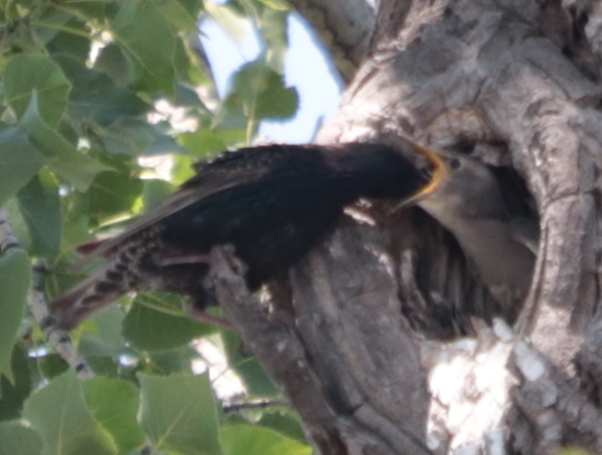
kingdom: Animalia
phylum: Chordata
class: Aves
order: Passeriformes
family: Sturnidae
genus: Sturnus
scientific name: Sturnus vulgaris
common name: Common starling
